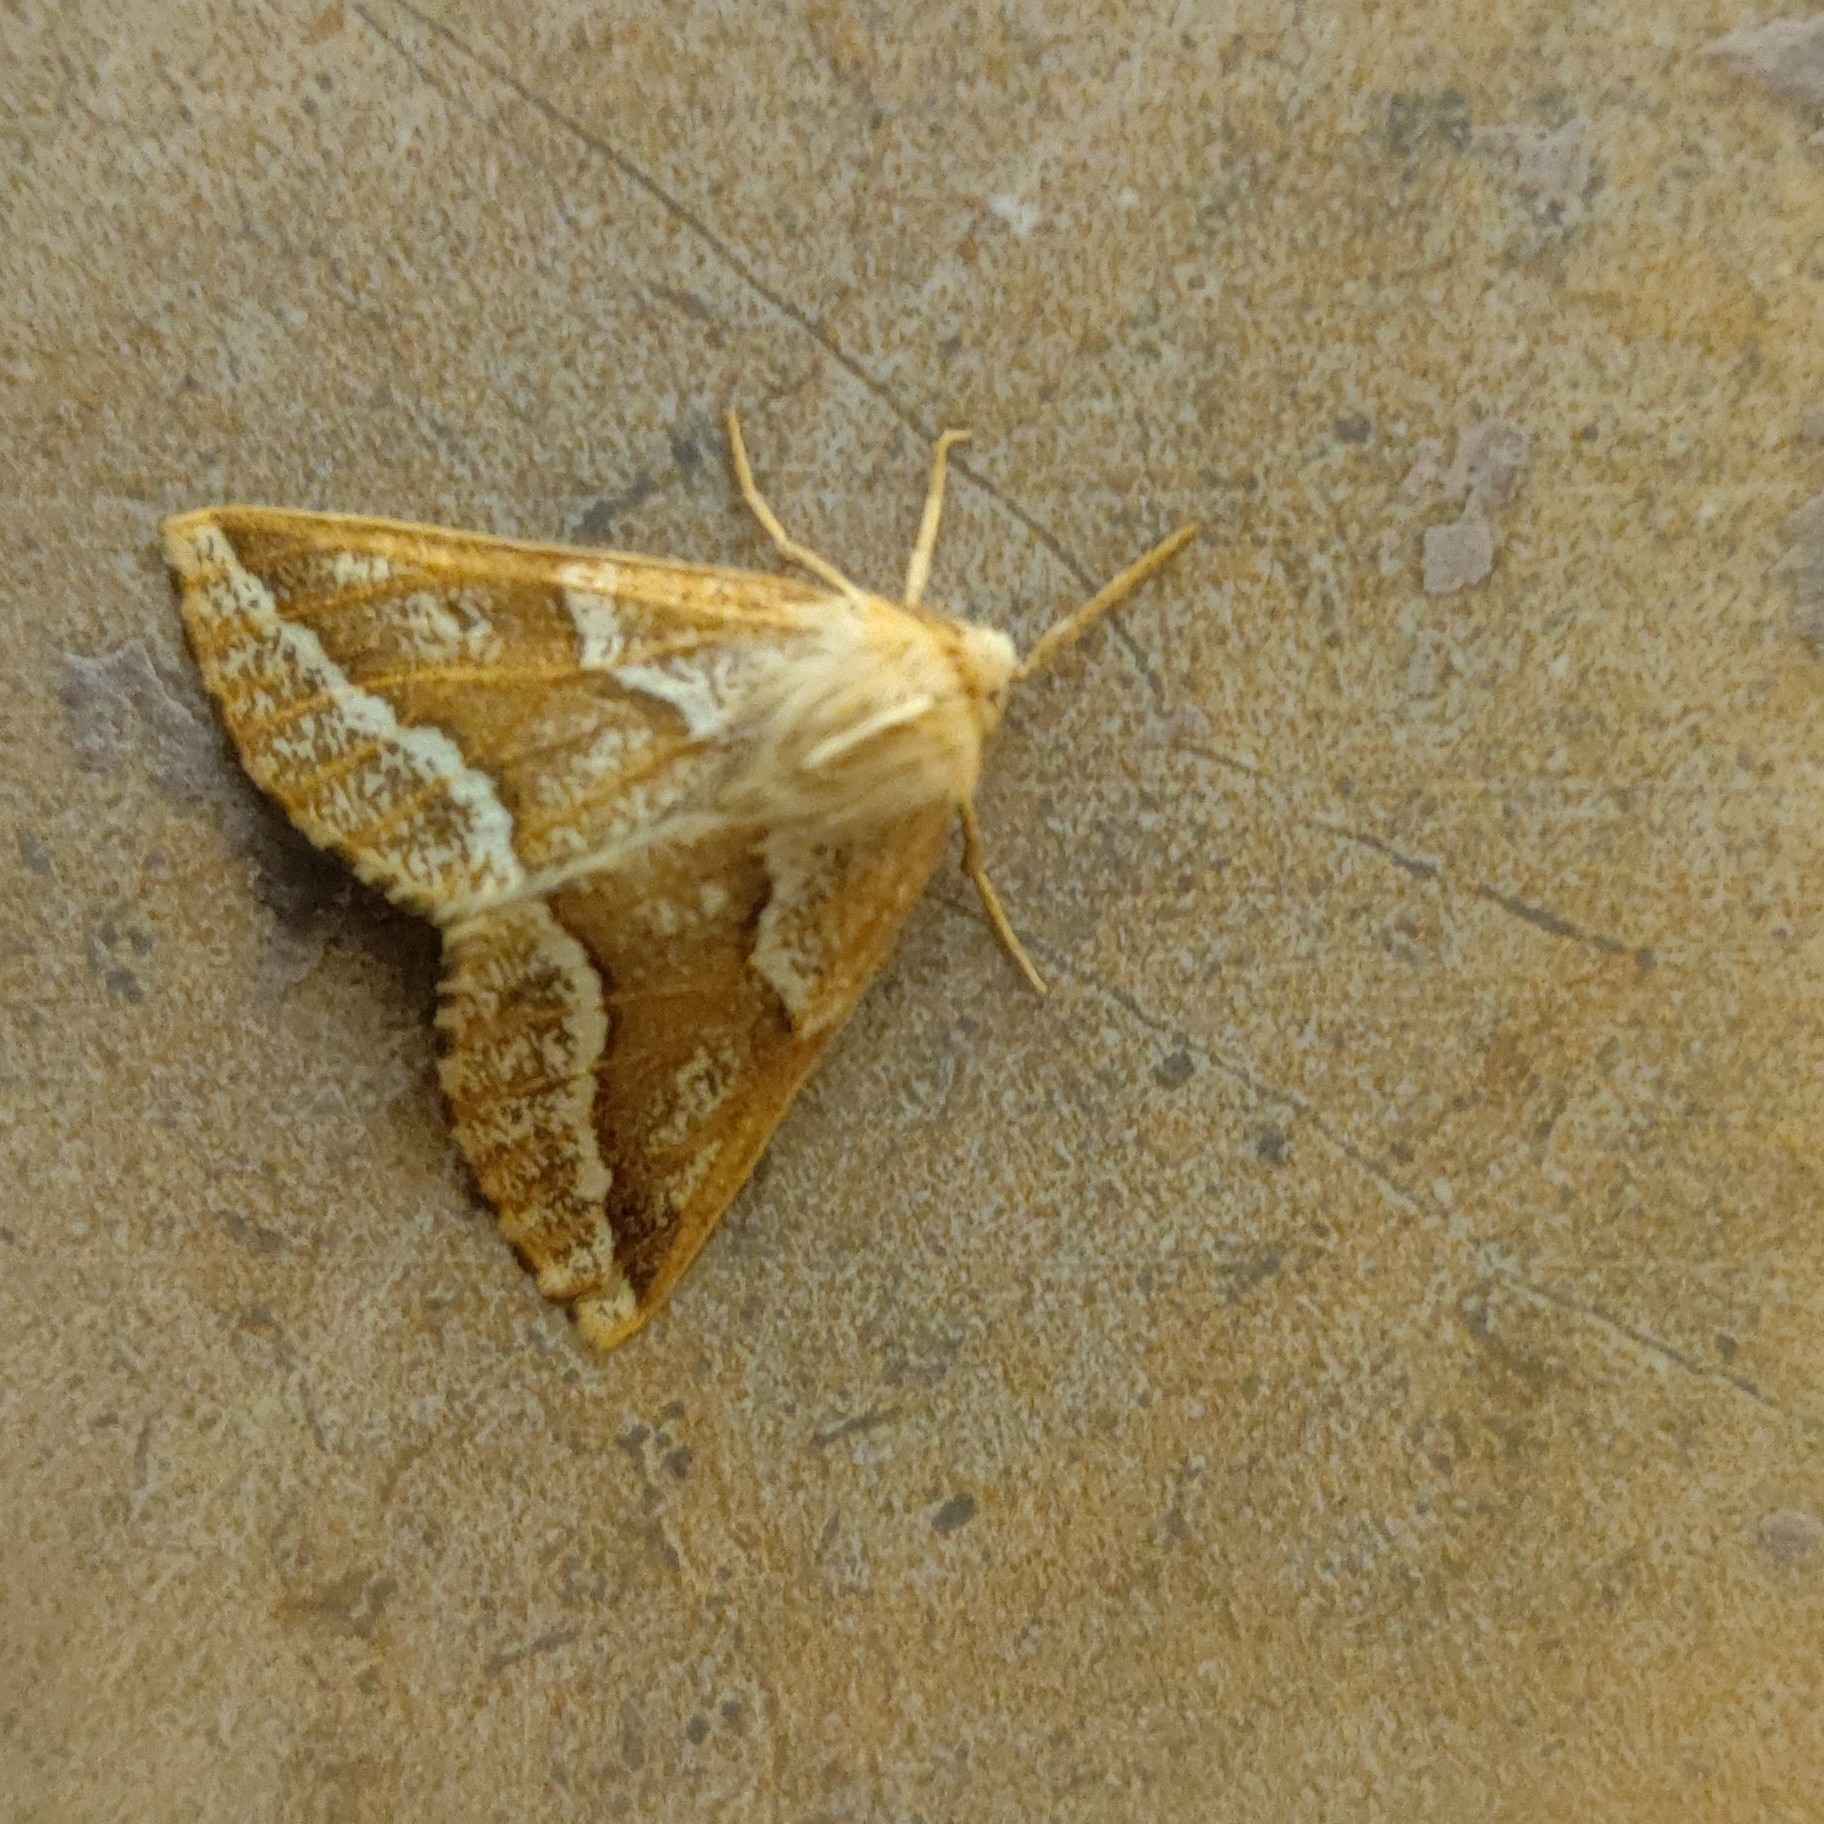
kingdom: Animalia
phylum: Arthropoda
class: Insecta
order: Lepidoptera
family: Geometridae
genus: Odontopera
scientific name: Odontopera kametaria
